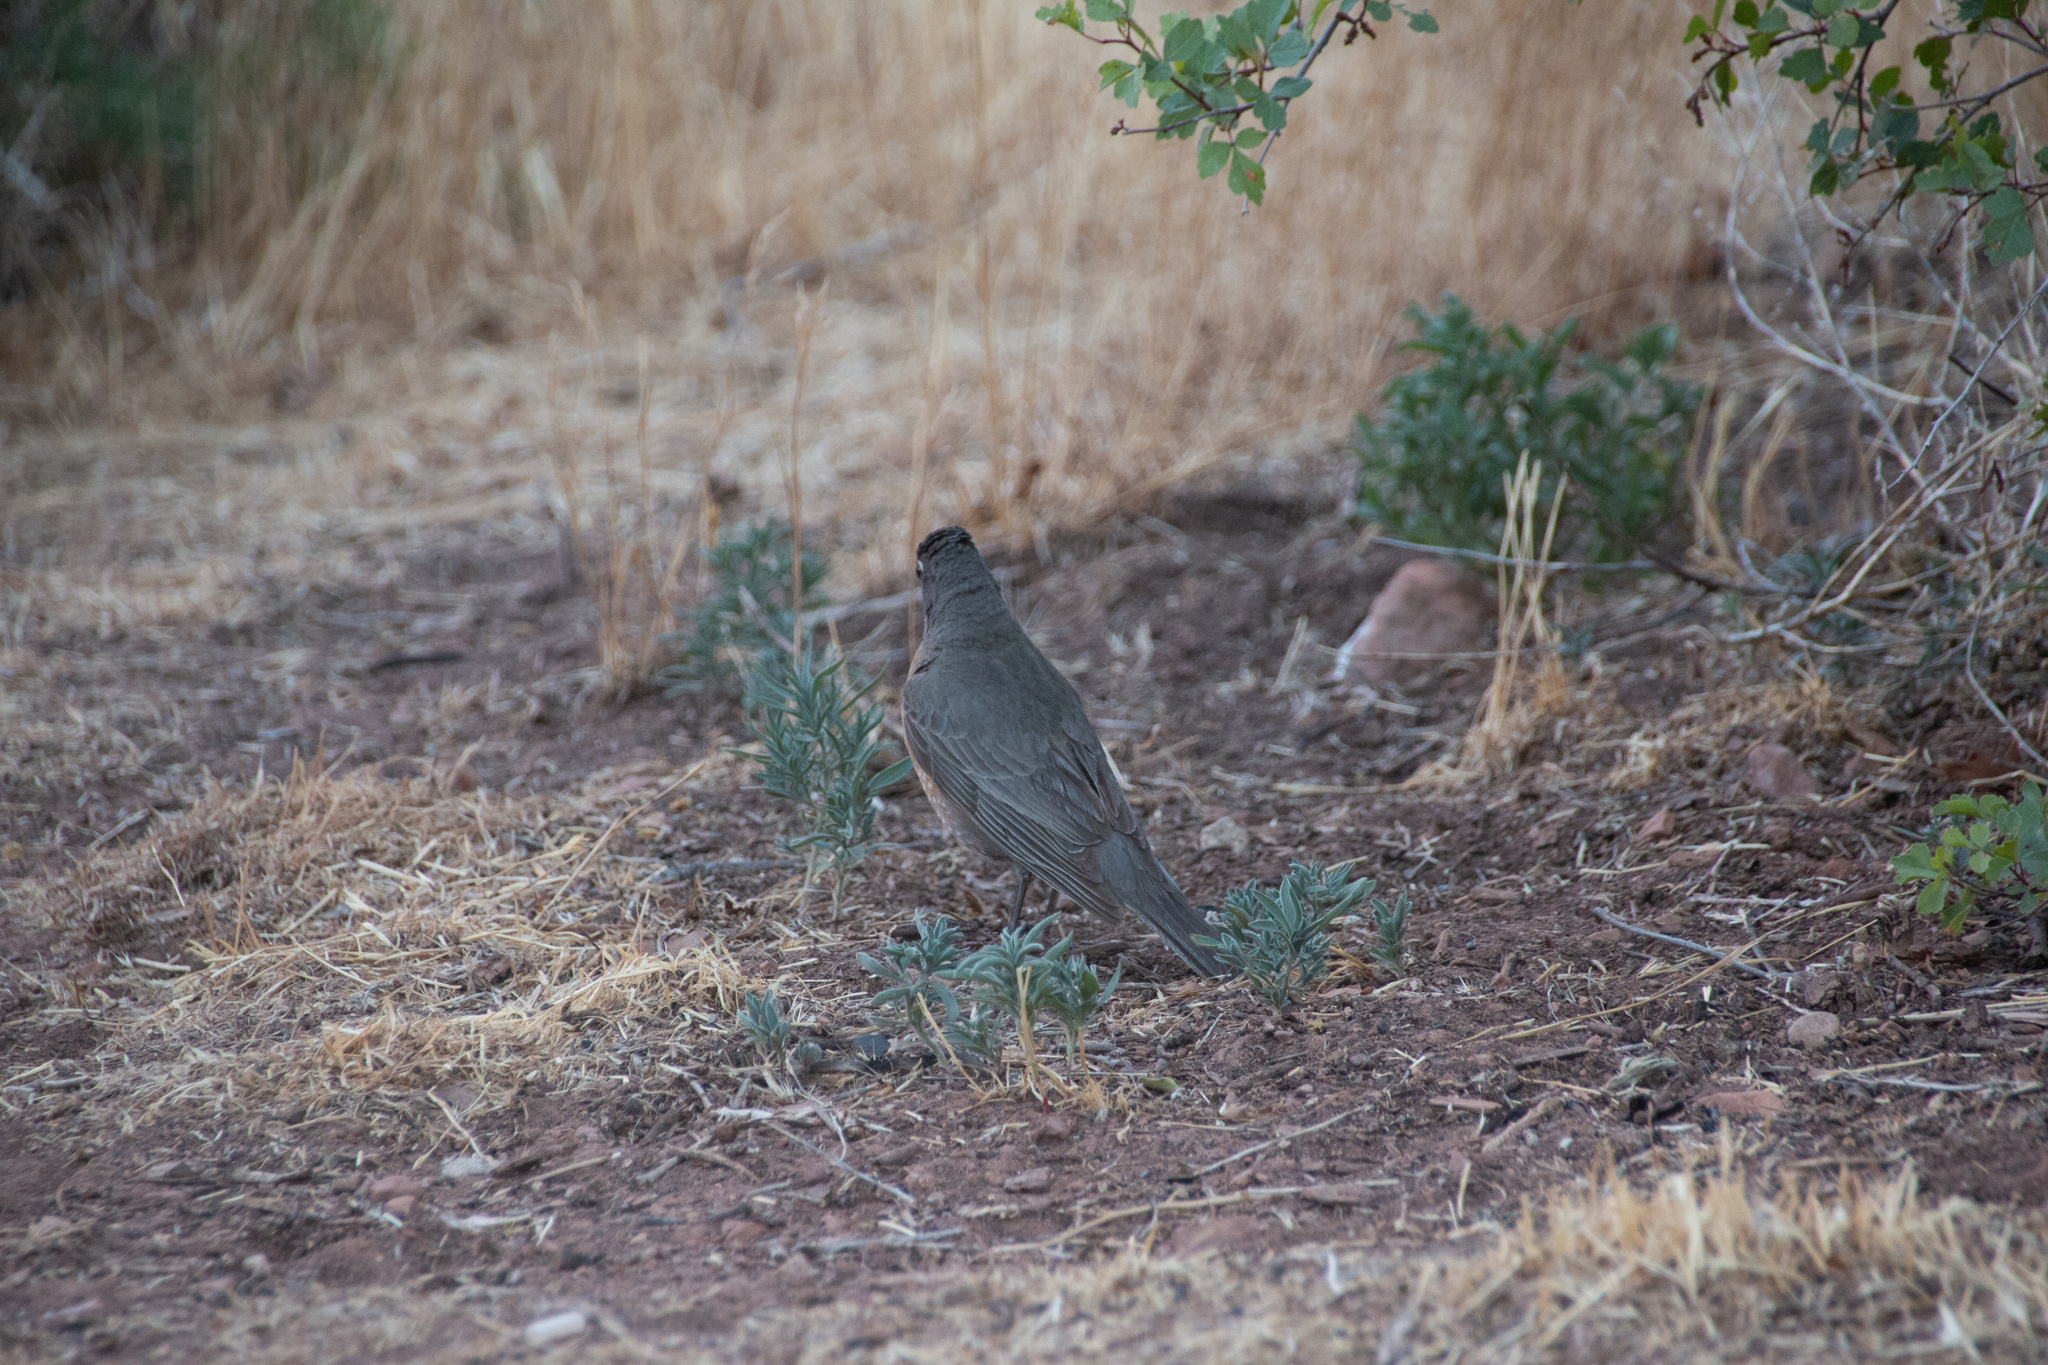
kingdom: Animalia
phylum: Chordata
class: Aves
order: Passeriformes
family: Turdidae
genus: Turdus
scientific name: Turdus migratorius
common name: American robin
